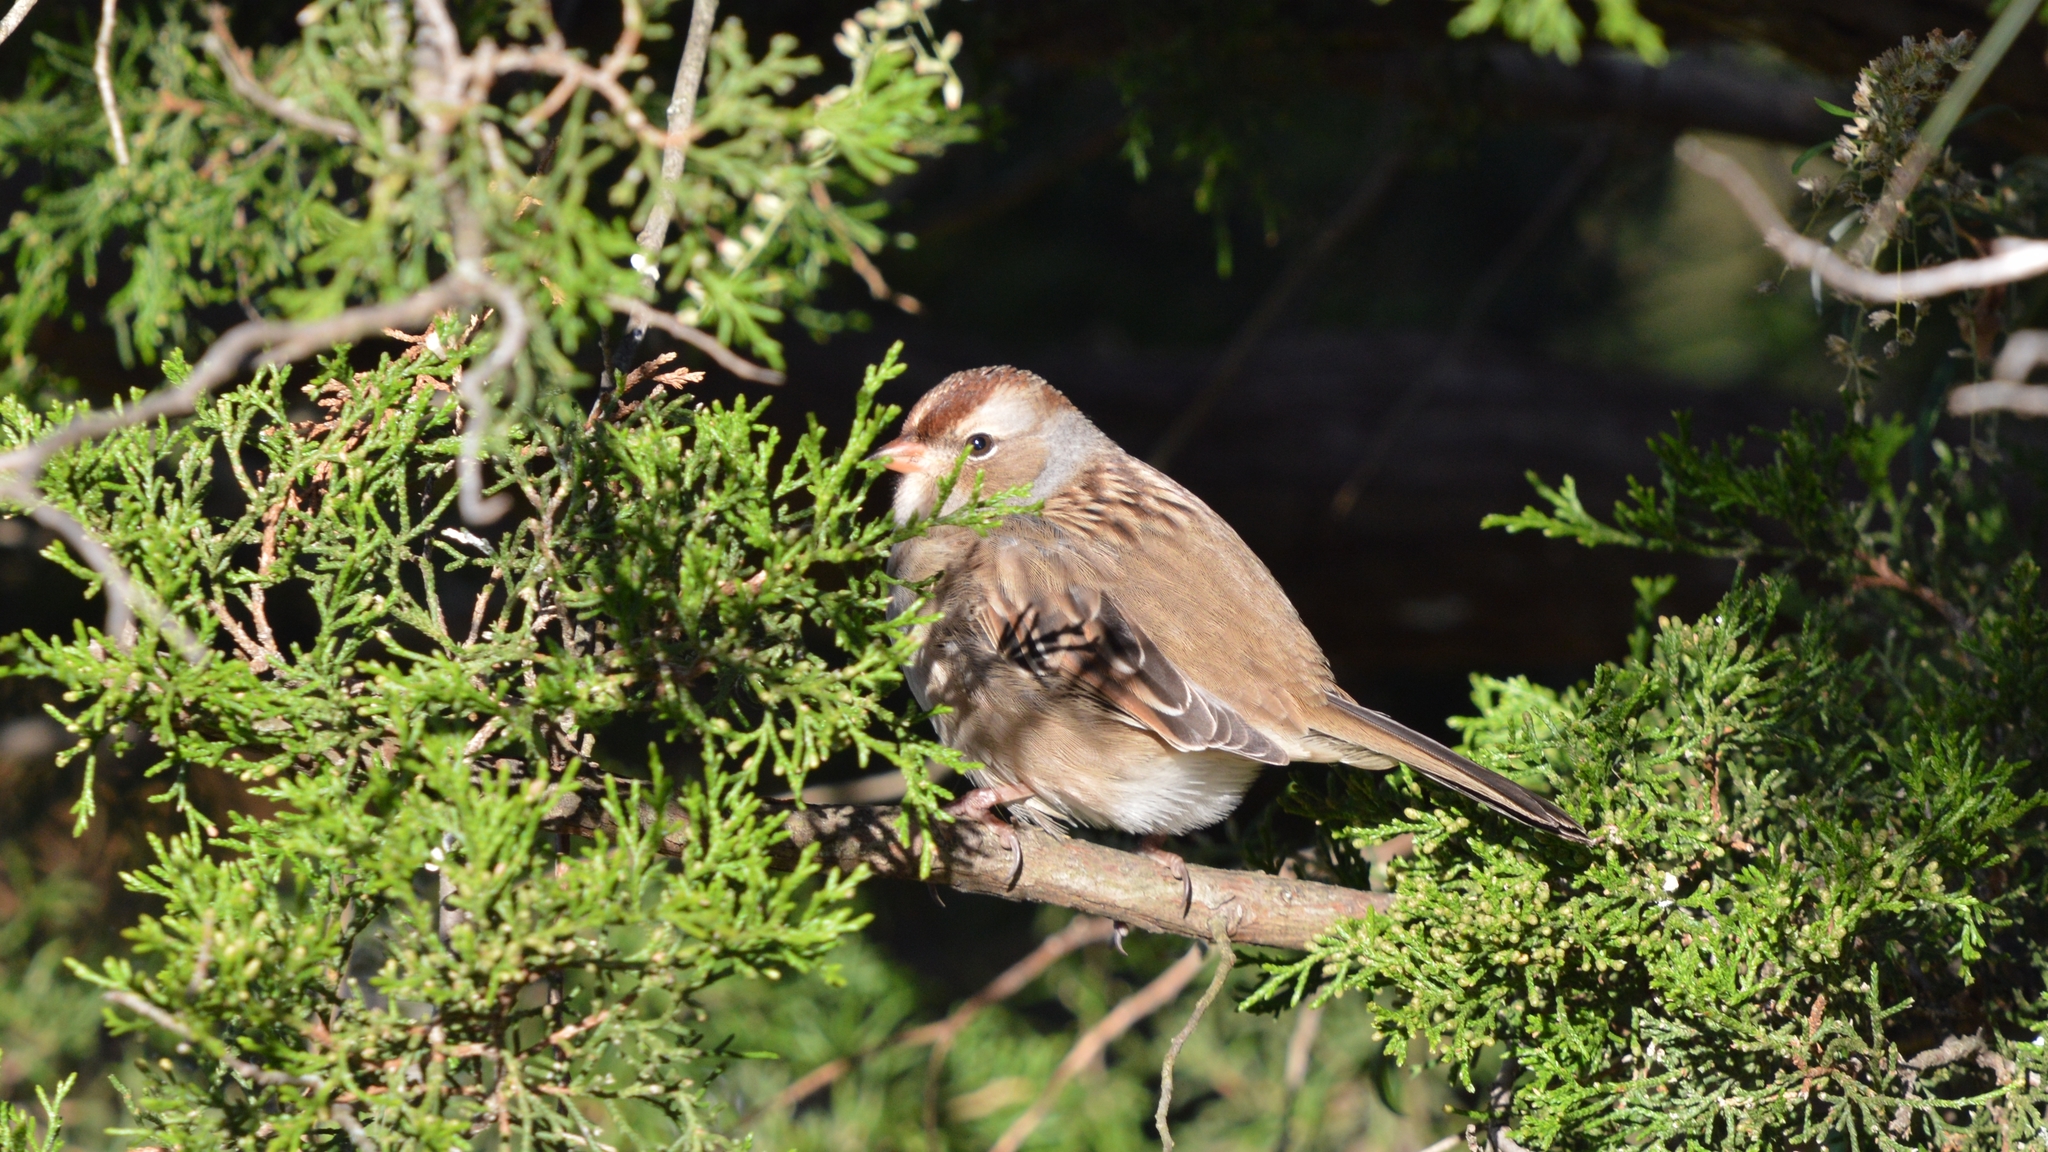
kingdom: Animalia
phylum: Chordata
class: Aves
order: Passeriformes
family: Passerellidae
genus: Zonotrichia
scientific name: Zonotrichia leucophrys
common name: White-crowned sparrow
